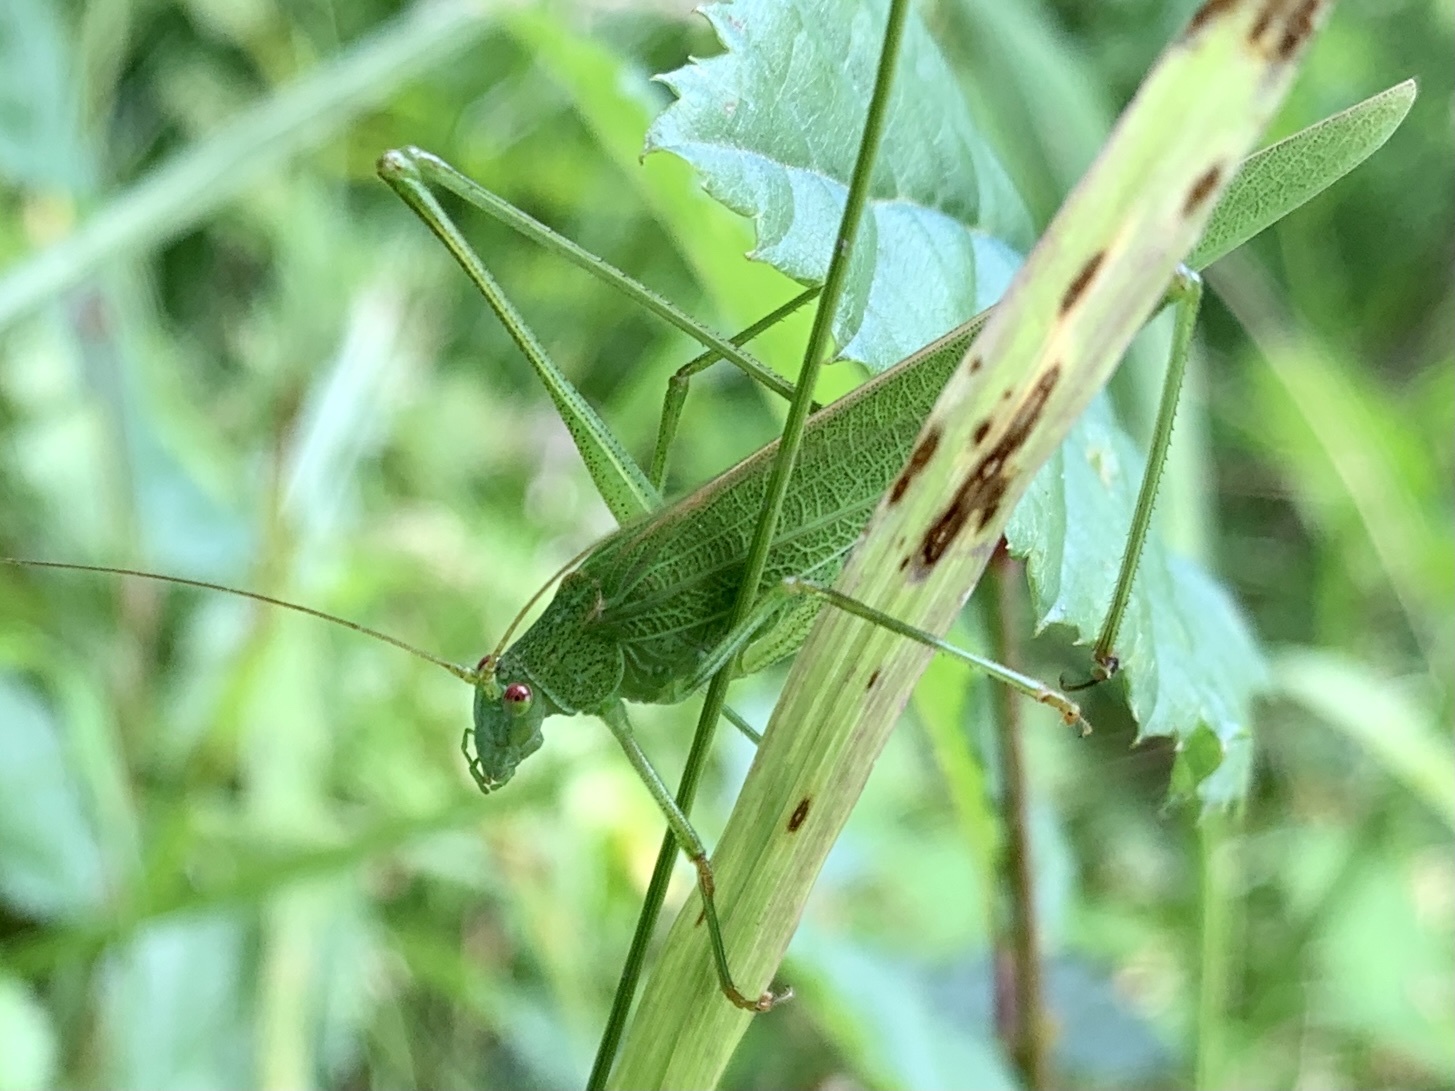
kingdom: Animalia
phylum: Arthropoda
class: Insecta
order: Orthoptera
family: Tettigoniidae
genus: Phaneroptera
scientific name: Phaneroptera falcata
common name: Sickle-bearing bush-cricket
